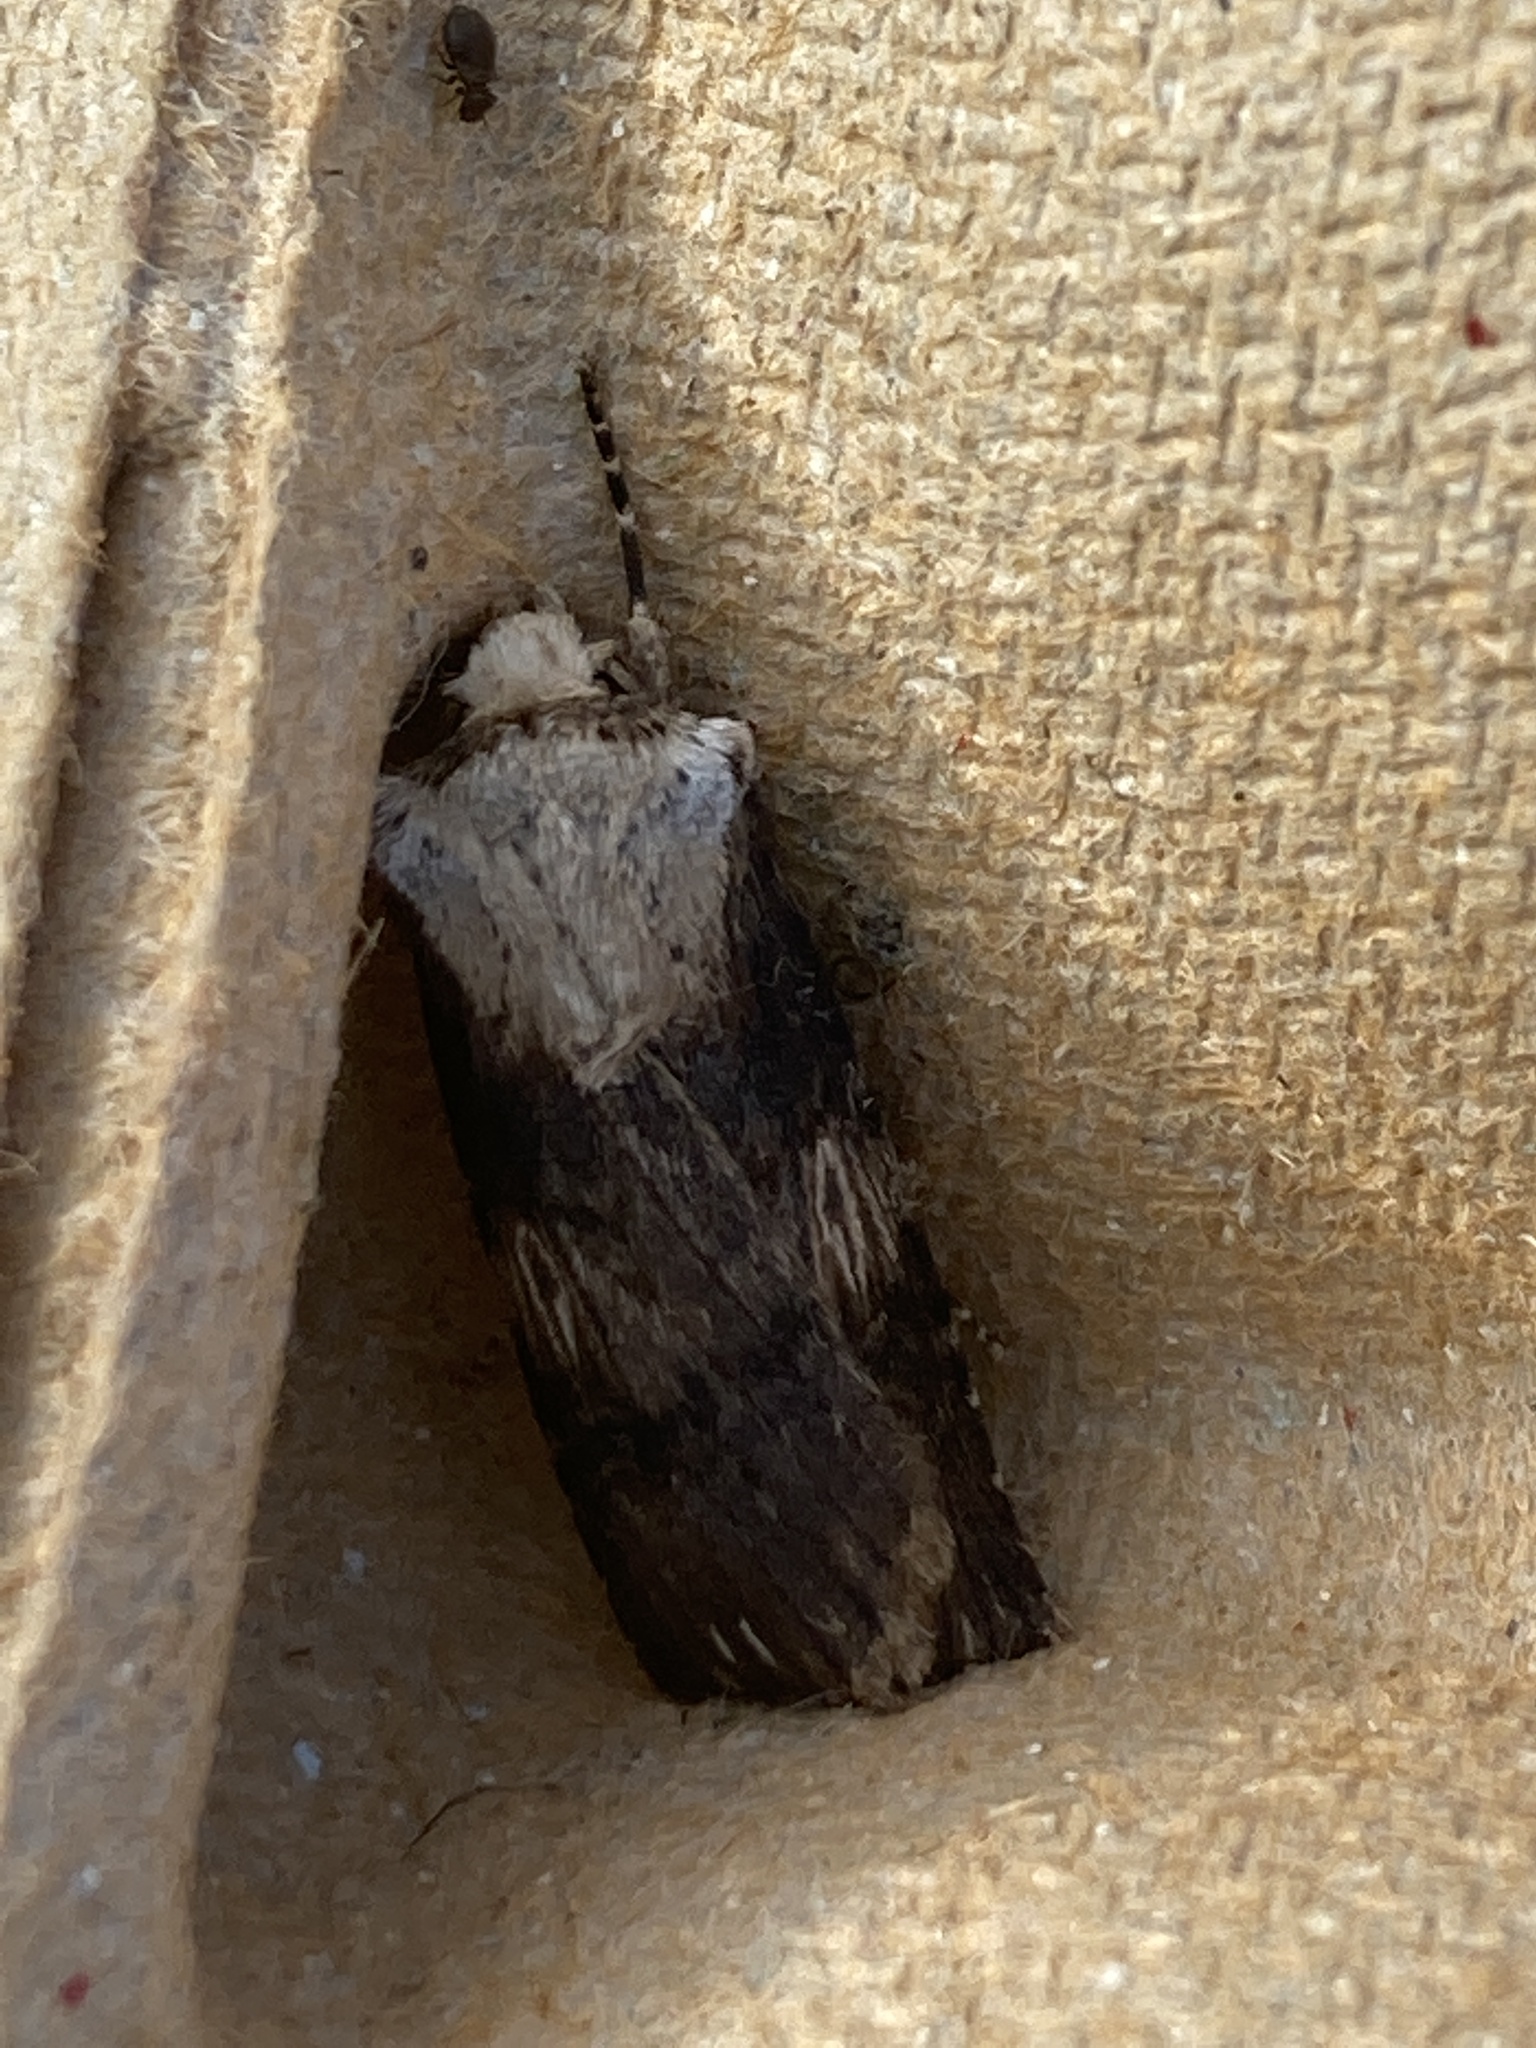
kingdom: Animalia
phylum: Arthropoda
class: Insecta
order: Lepidoptera
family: Noctuidae
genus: Agrotis
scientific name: Agrotis puta
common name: Shuttle-shaped dart
